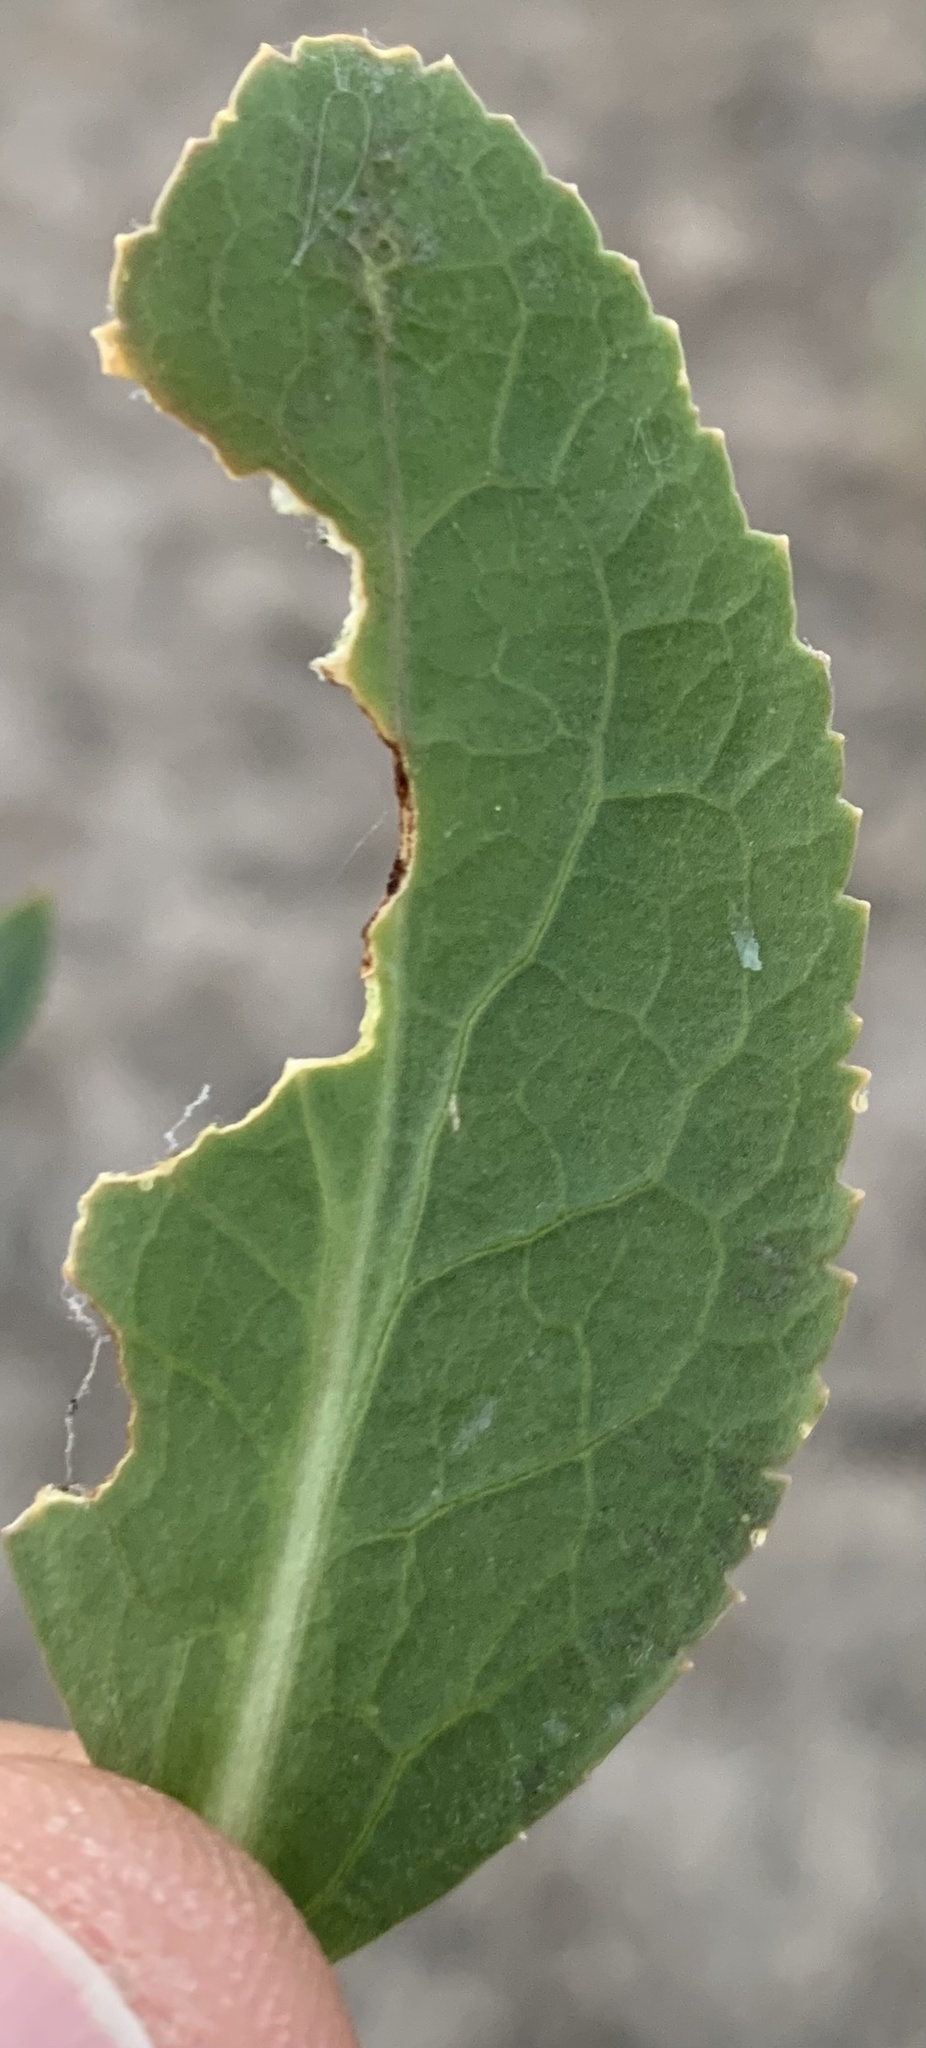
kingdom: Plantae
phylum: Tracheophyta
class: Magnoliopsida
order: Brassicales
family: Brassicaceae
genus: Lepidium
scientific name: Lepidium latifolium
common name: Dittander
